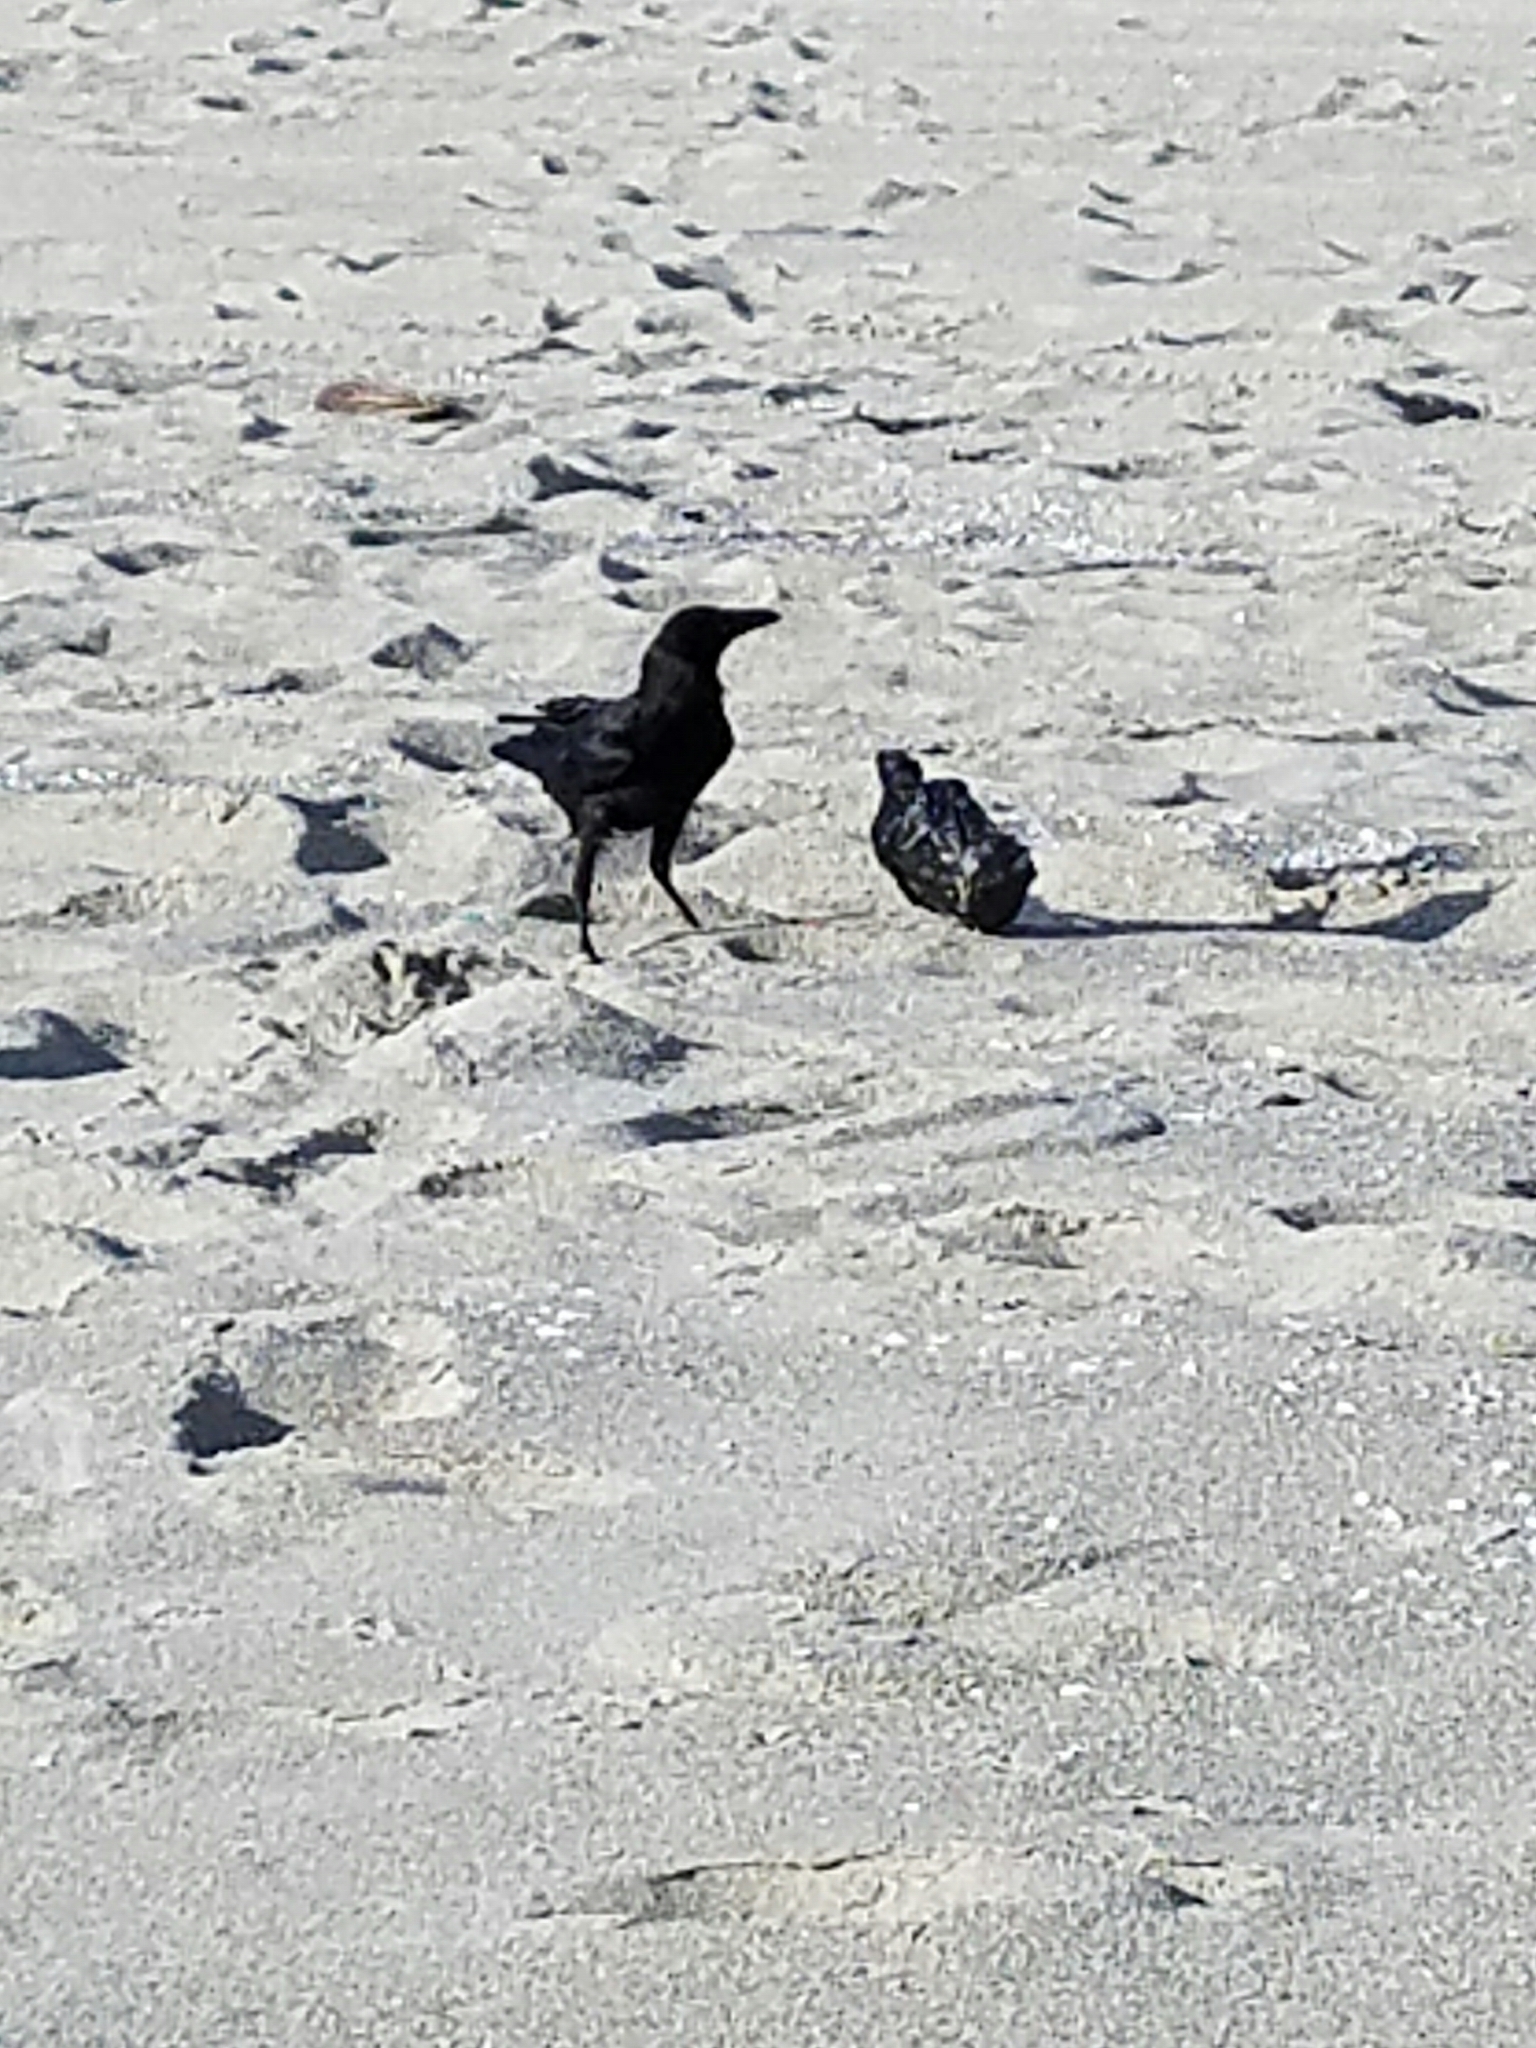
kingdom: Animalia
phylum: Chordata
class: Aves
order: Passeriformes
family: Corvidae
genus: Corvus
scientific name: Corvus brachyrhynchos
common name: American crow
